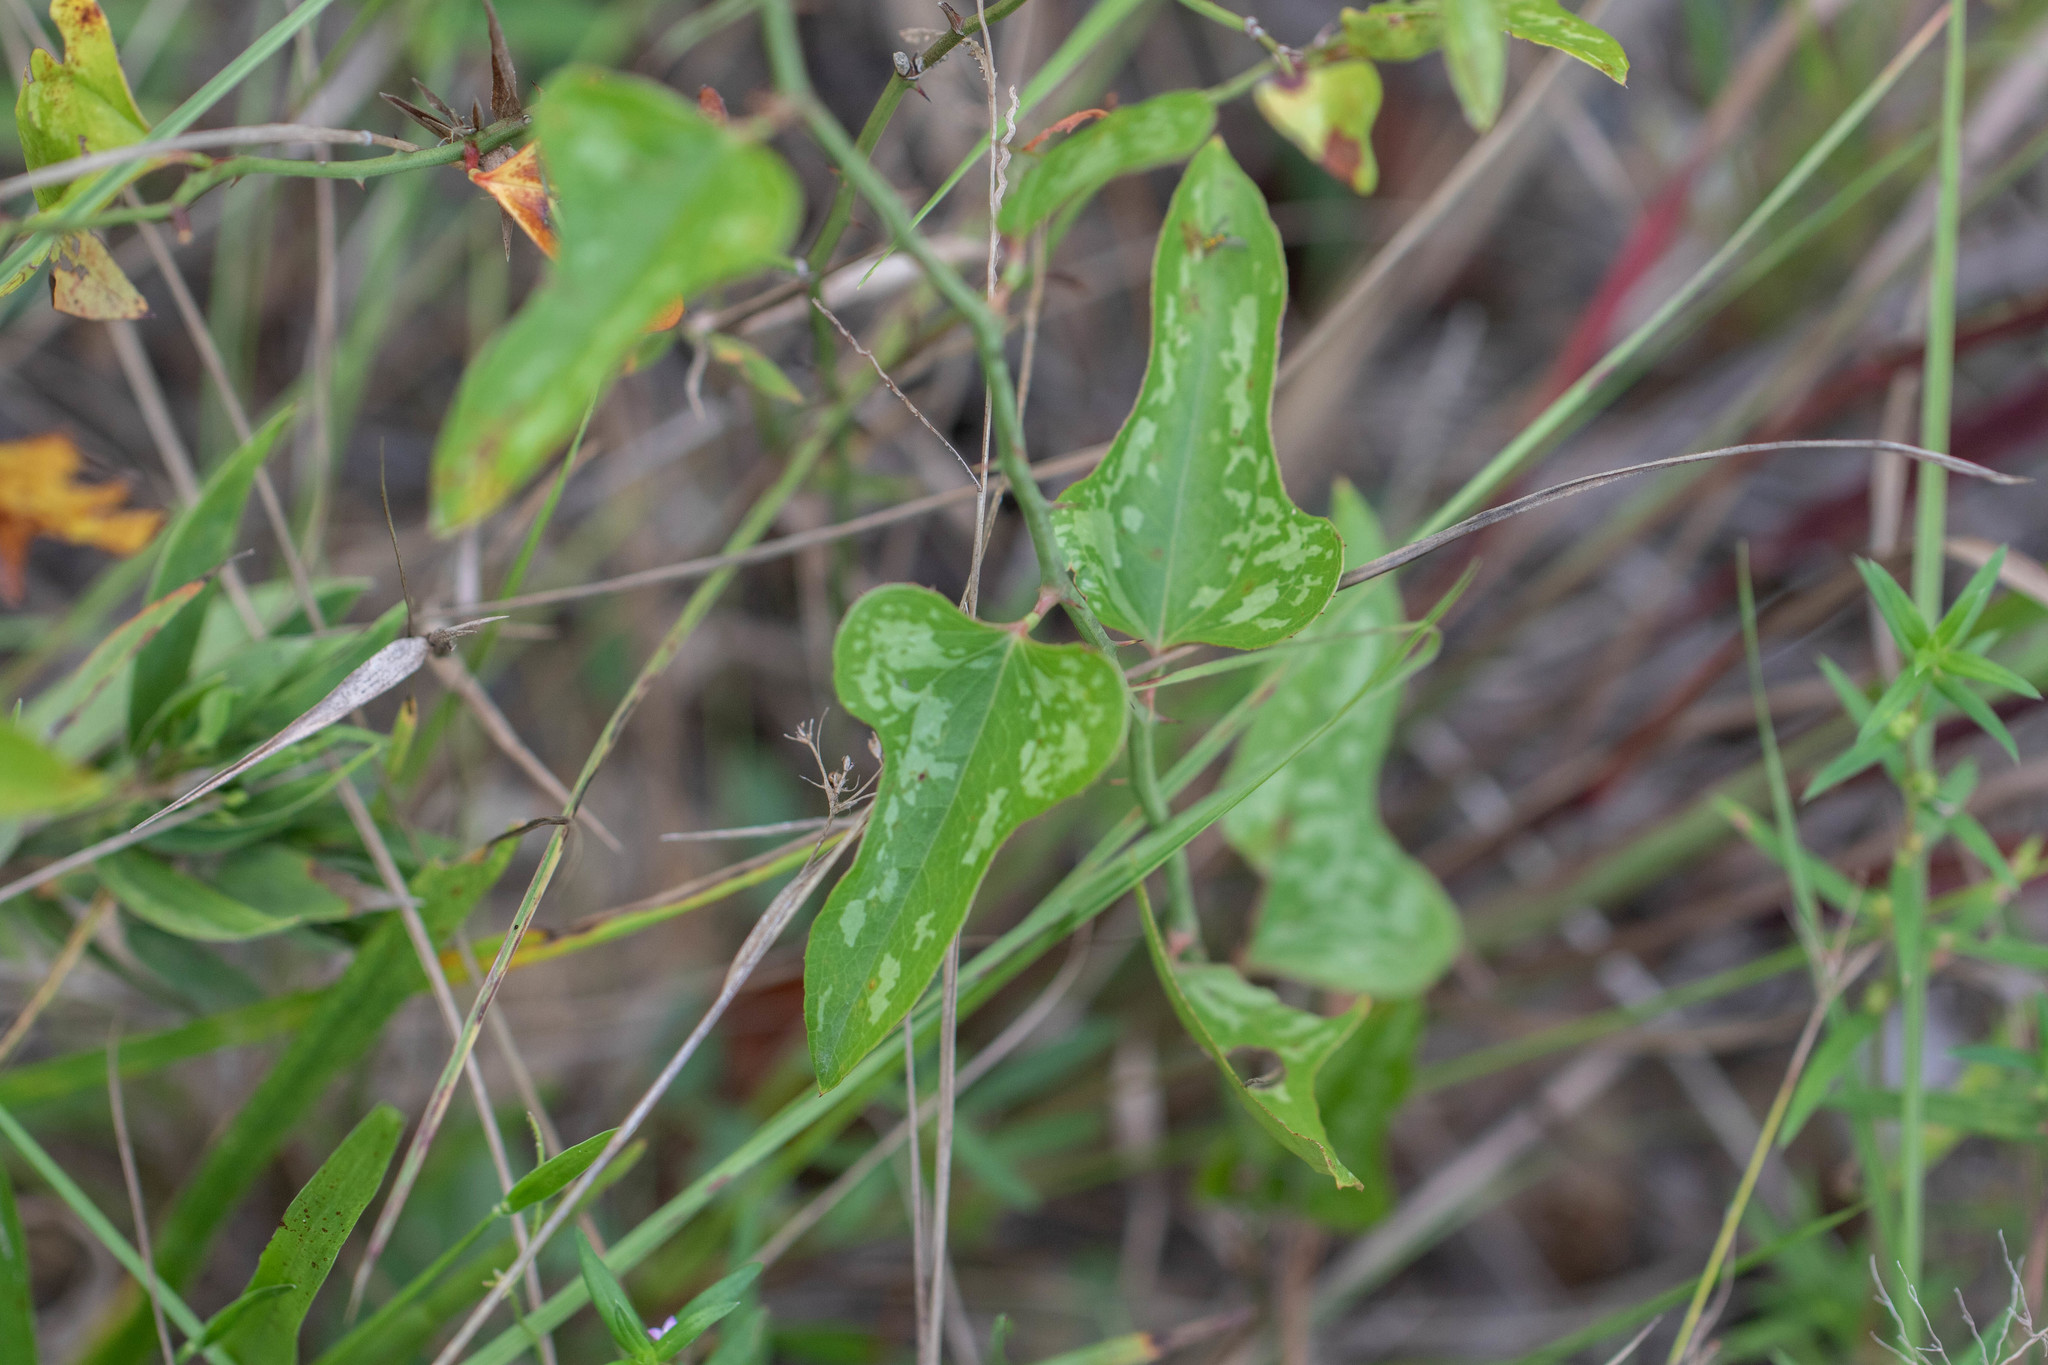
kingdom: Plantae
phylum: Tracheophyta
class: Liliopsida
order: Liliales
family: Smilacaceae
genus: Smilax
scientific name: Smilax bona-nox
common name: Catbrier
